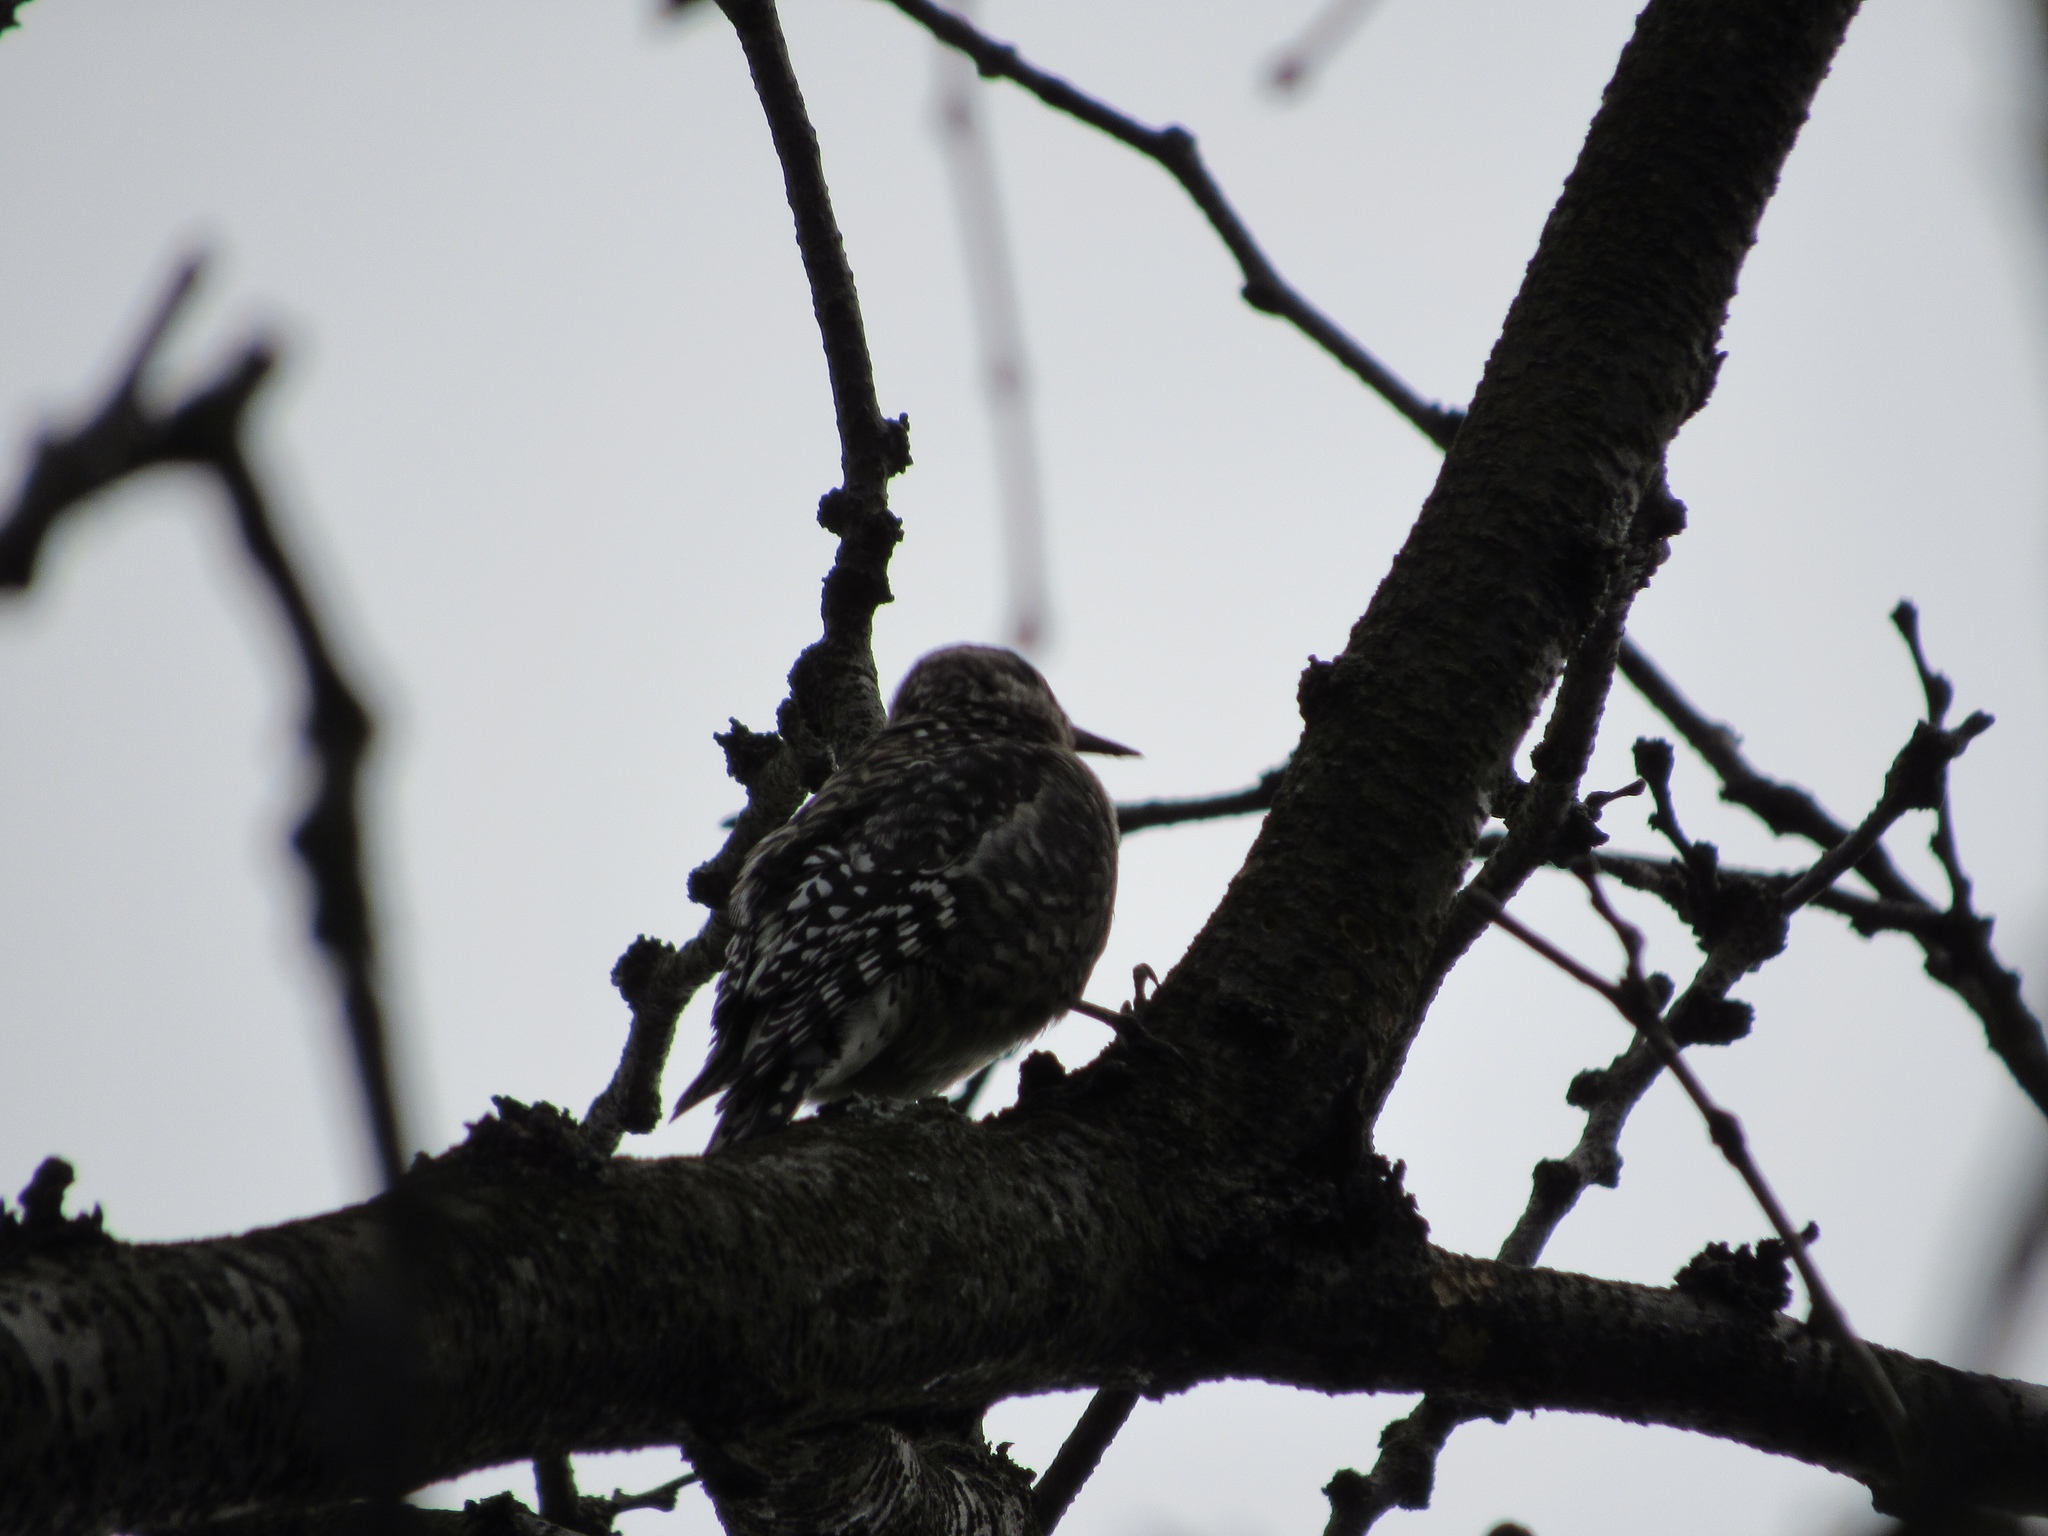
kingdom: Animalia
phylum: Chordata
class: Aves
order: Piciformes
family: Picidae
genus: Sphyrapicus
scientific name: Sphyrapicus varius
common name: Yellow-bellied sapsucker
